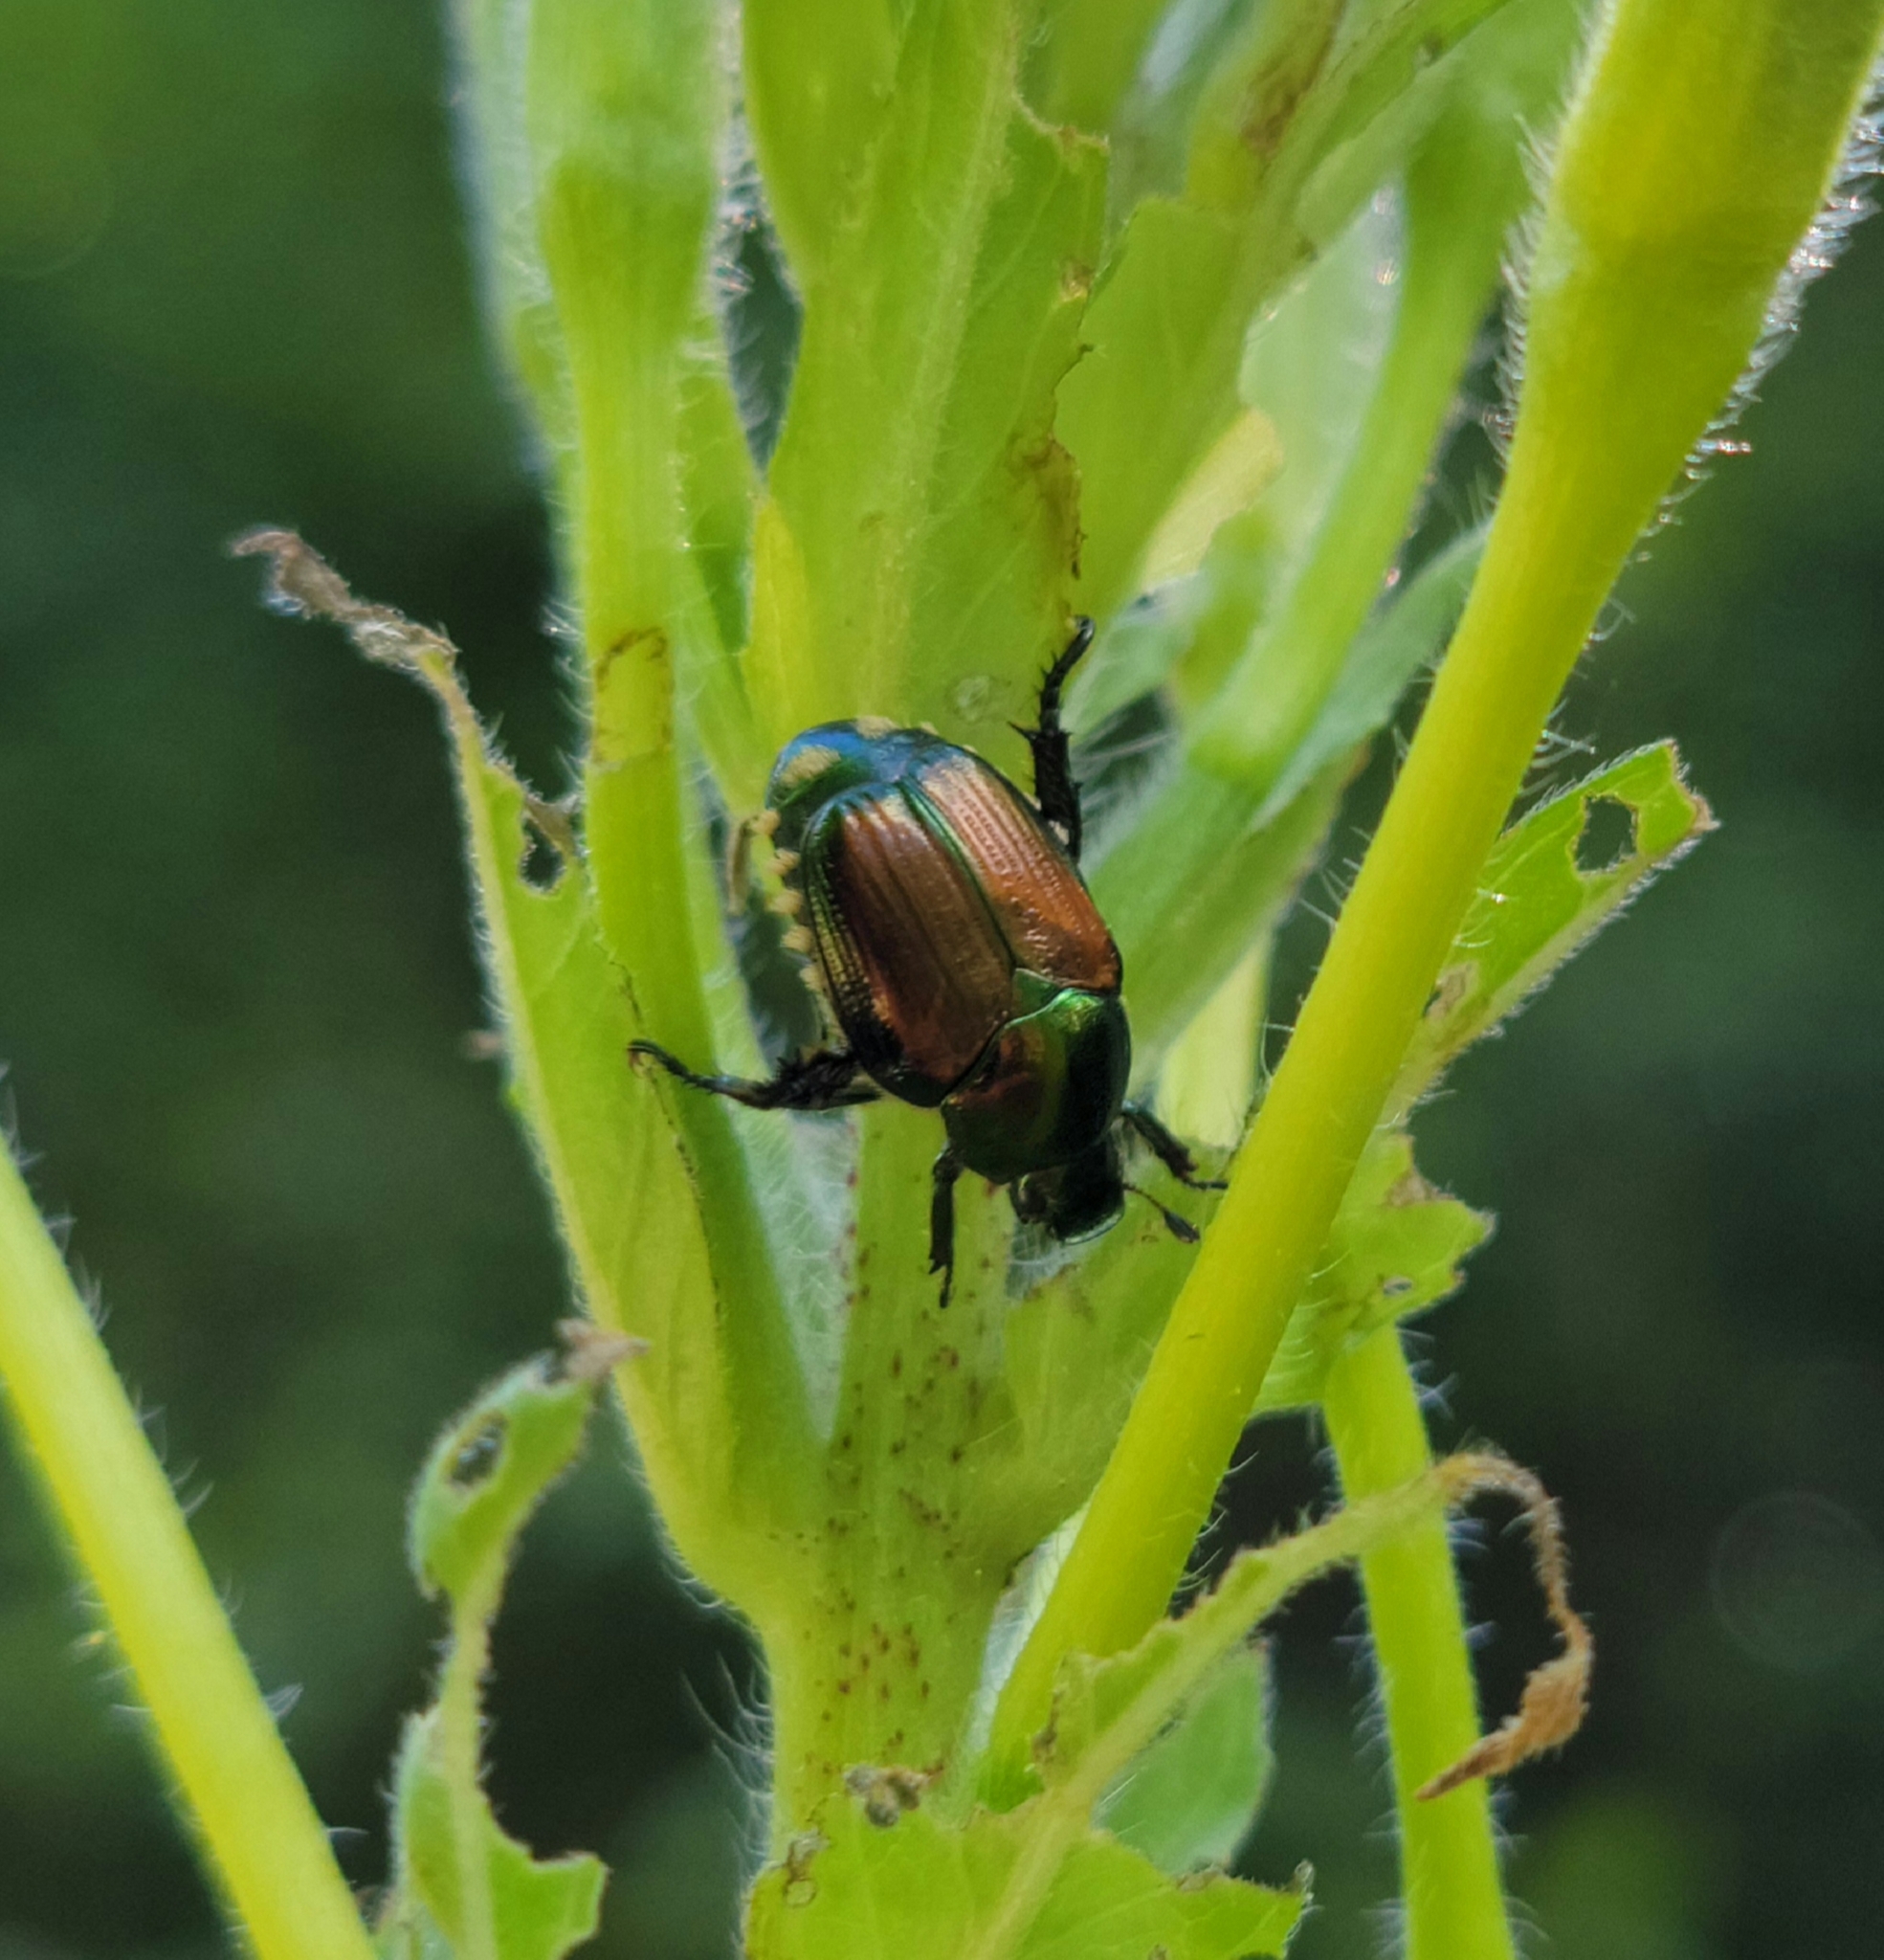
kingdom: Animalia
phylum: Arthropoda
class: Insecta
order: Coleoptera
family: Scarabaeidae
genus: Popillia
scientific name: Popillia japonica
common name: Japanese beetle
